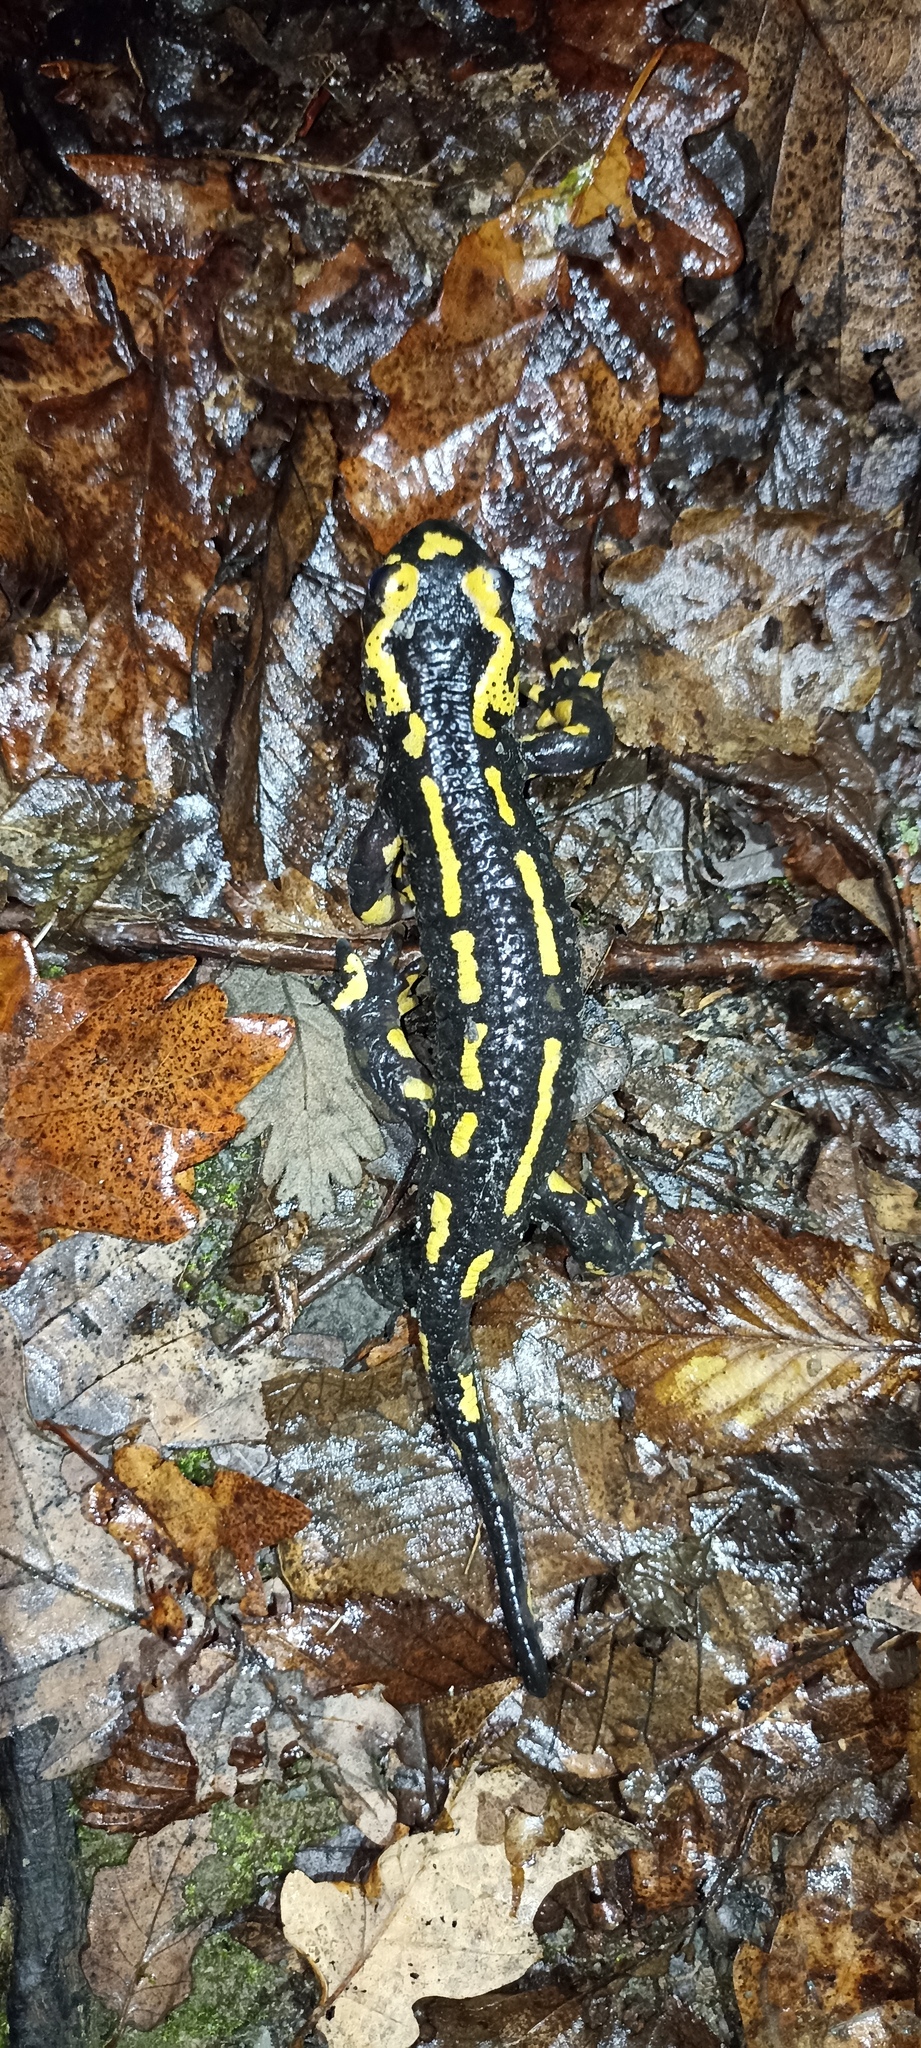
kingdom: Animalia
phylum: Chordata
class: Amphibia
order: Caudata
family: Salamandridae
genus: Salamandra
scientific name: Salamandra salamandra
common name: Fire salamander
